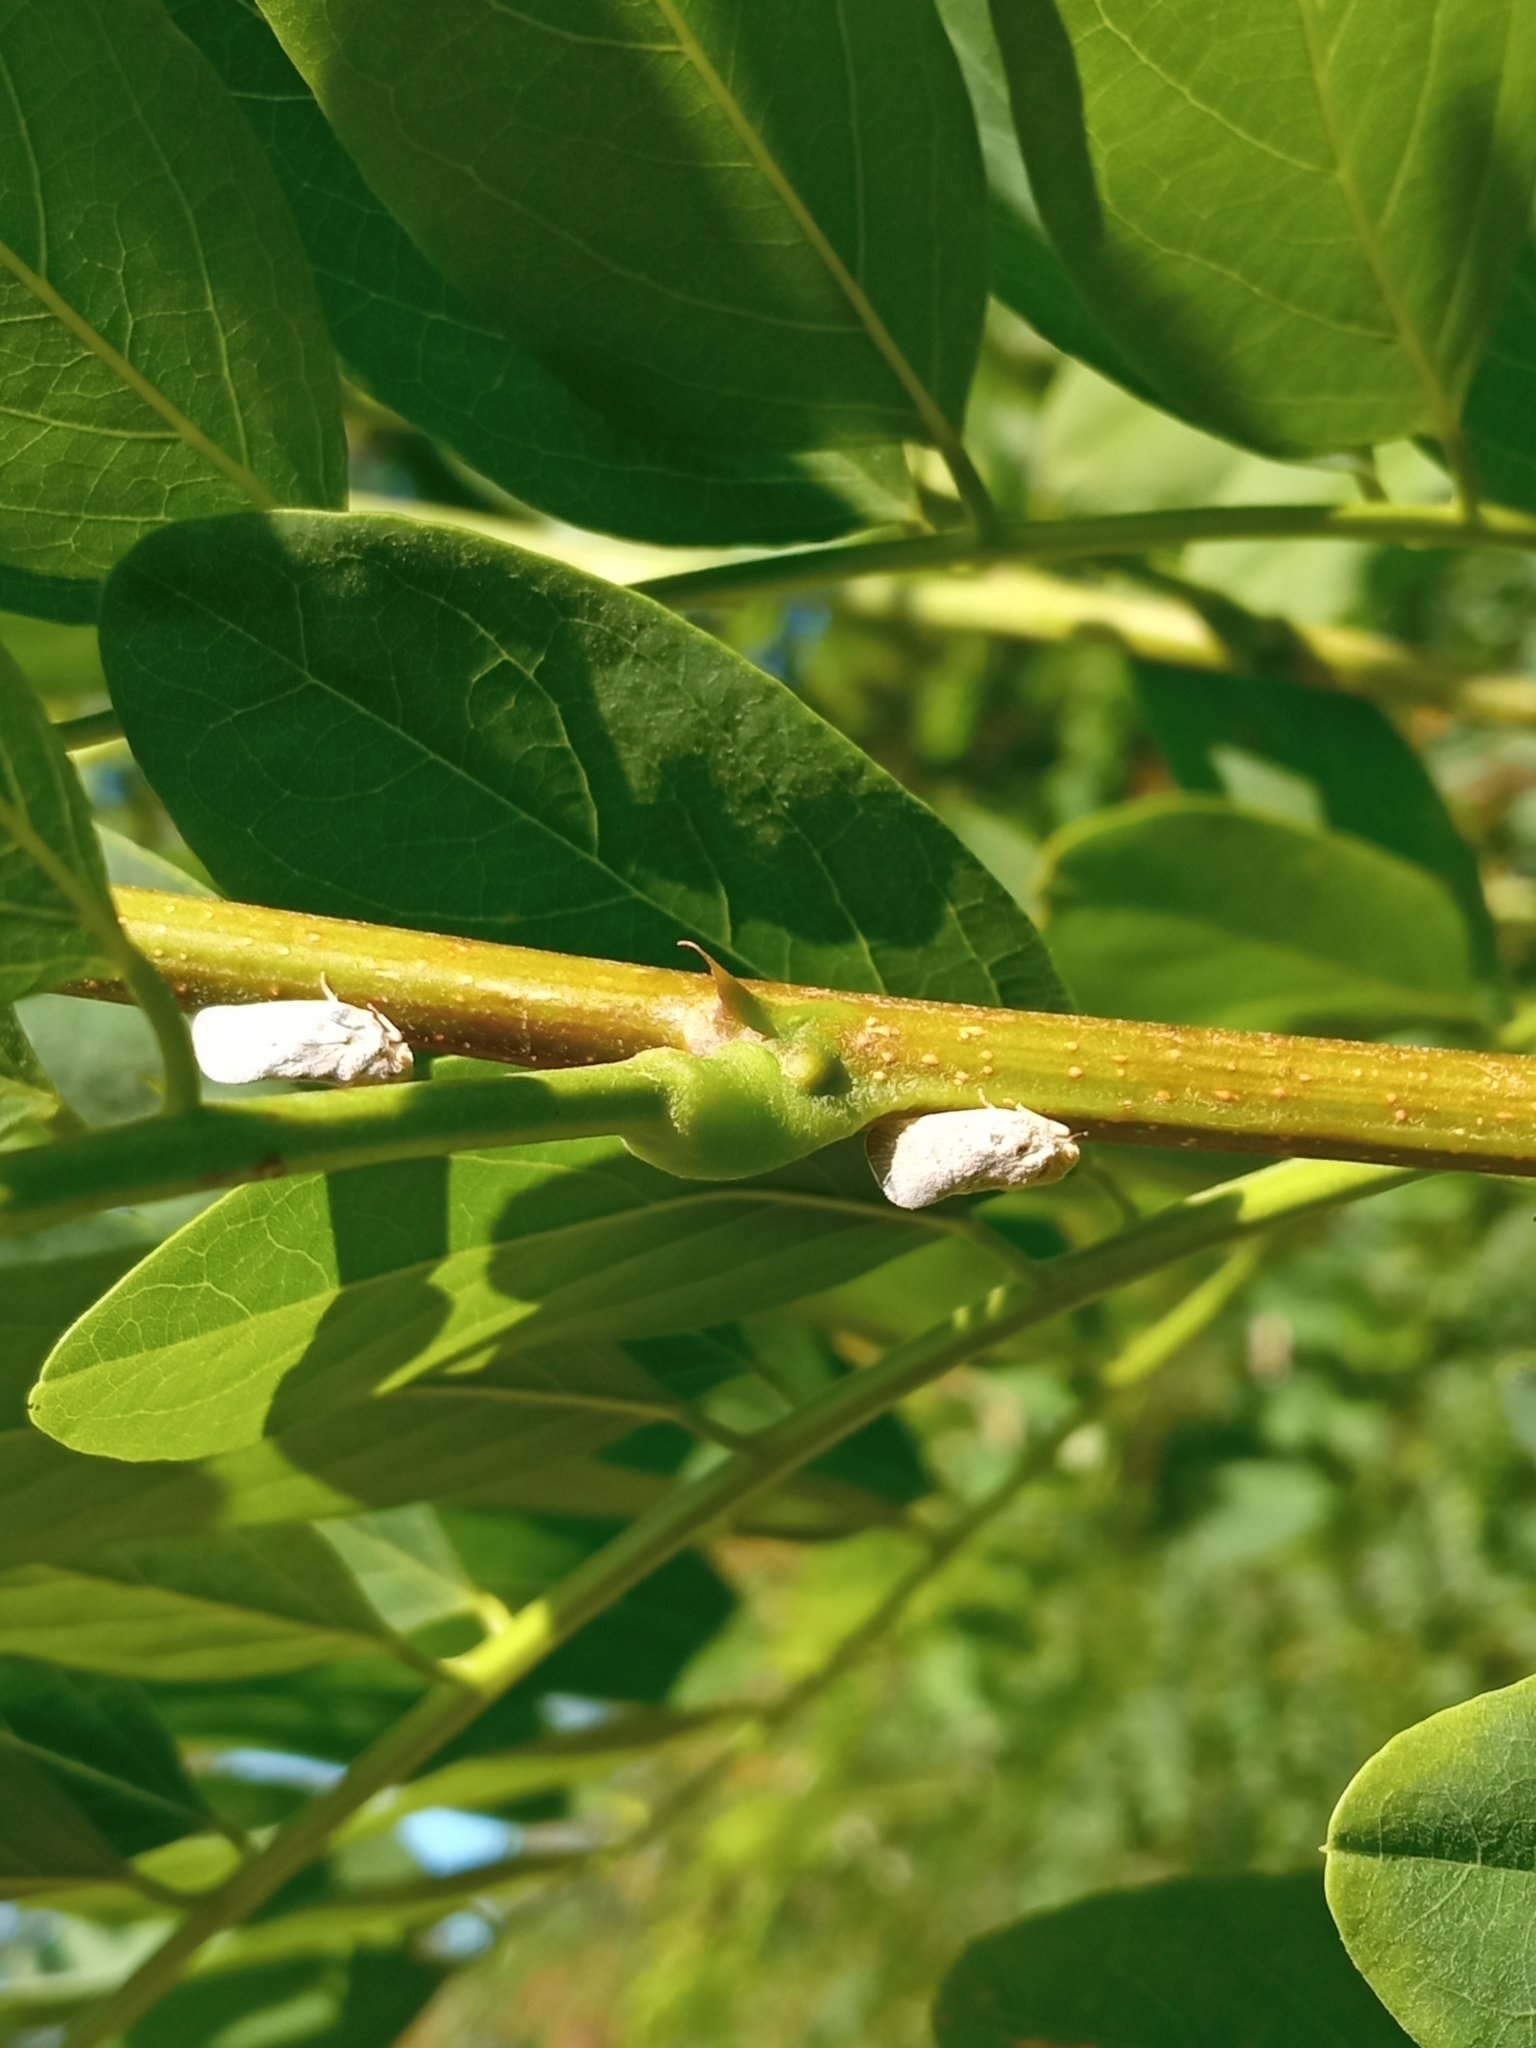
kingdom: Animalia
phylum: Arthropoda
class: Insecta
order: Hemiptera
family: Flatidae
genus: Metcalfa
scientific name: Metcalfa pruinosa
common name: Citrus flatid planthopper
